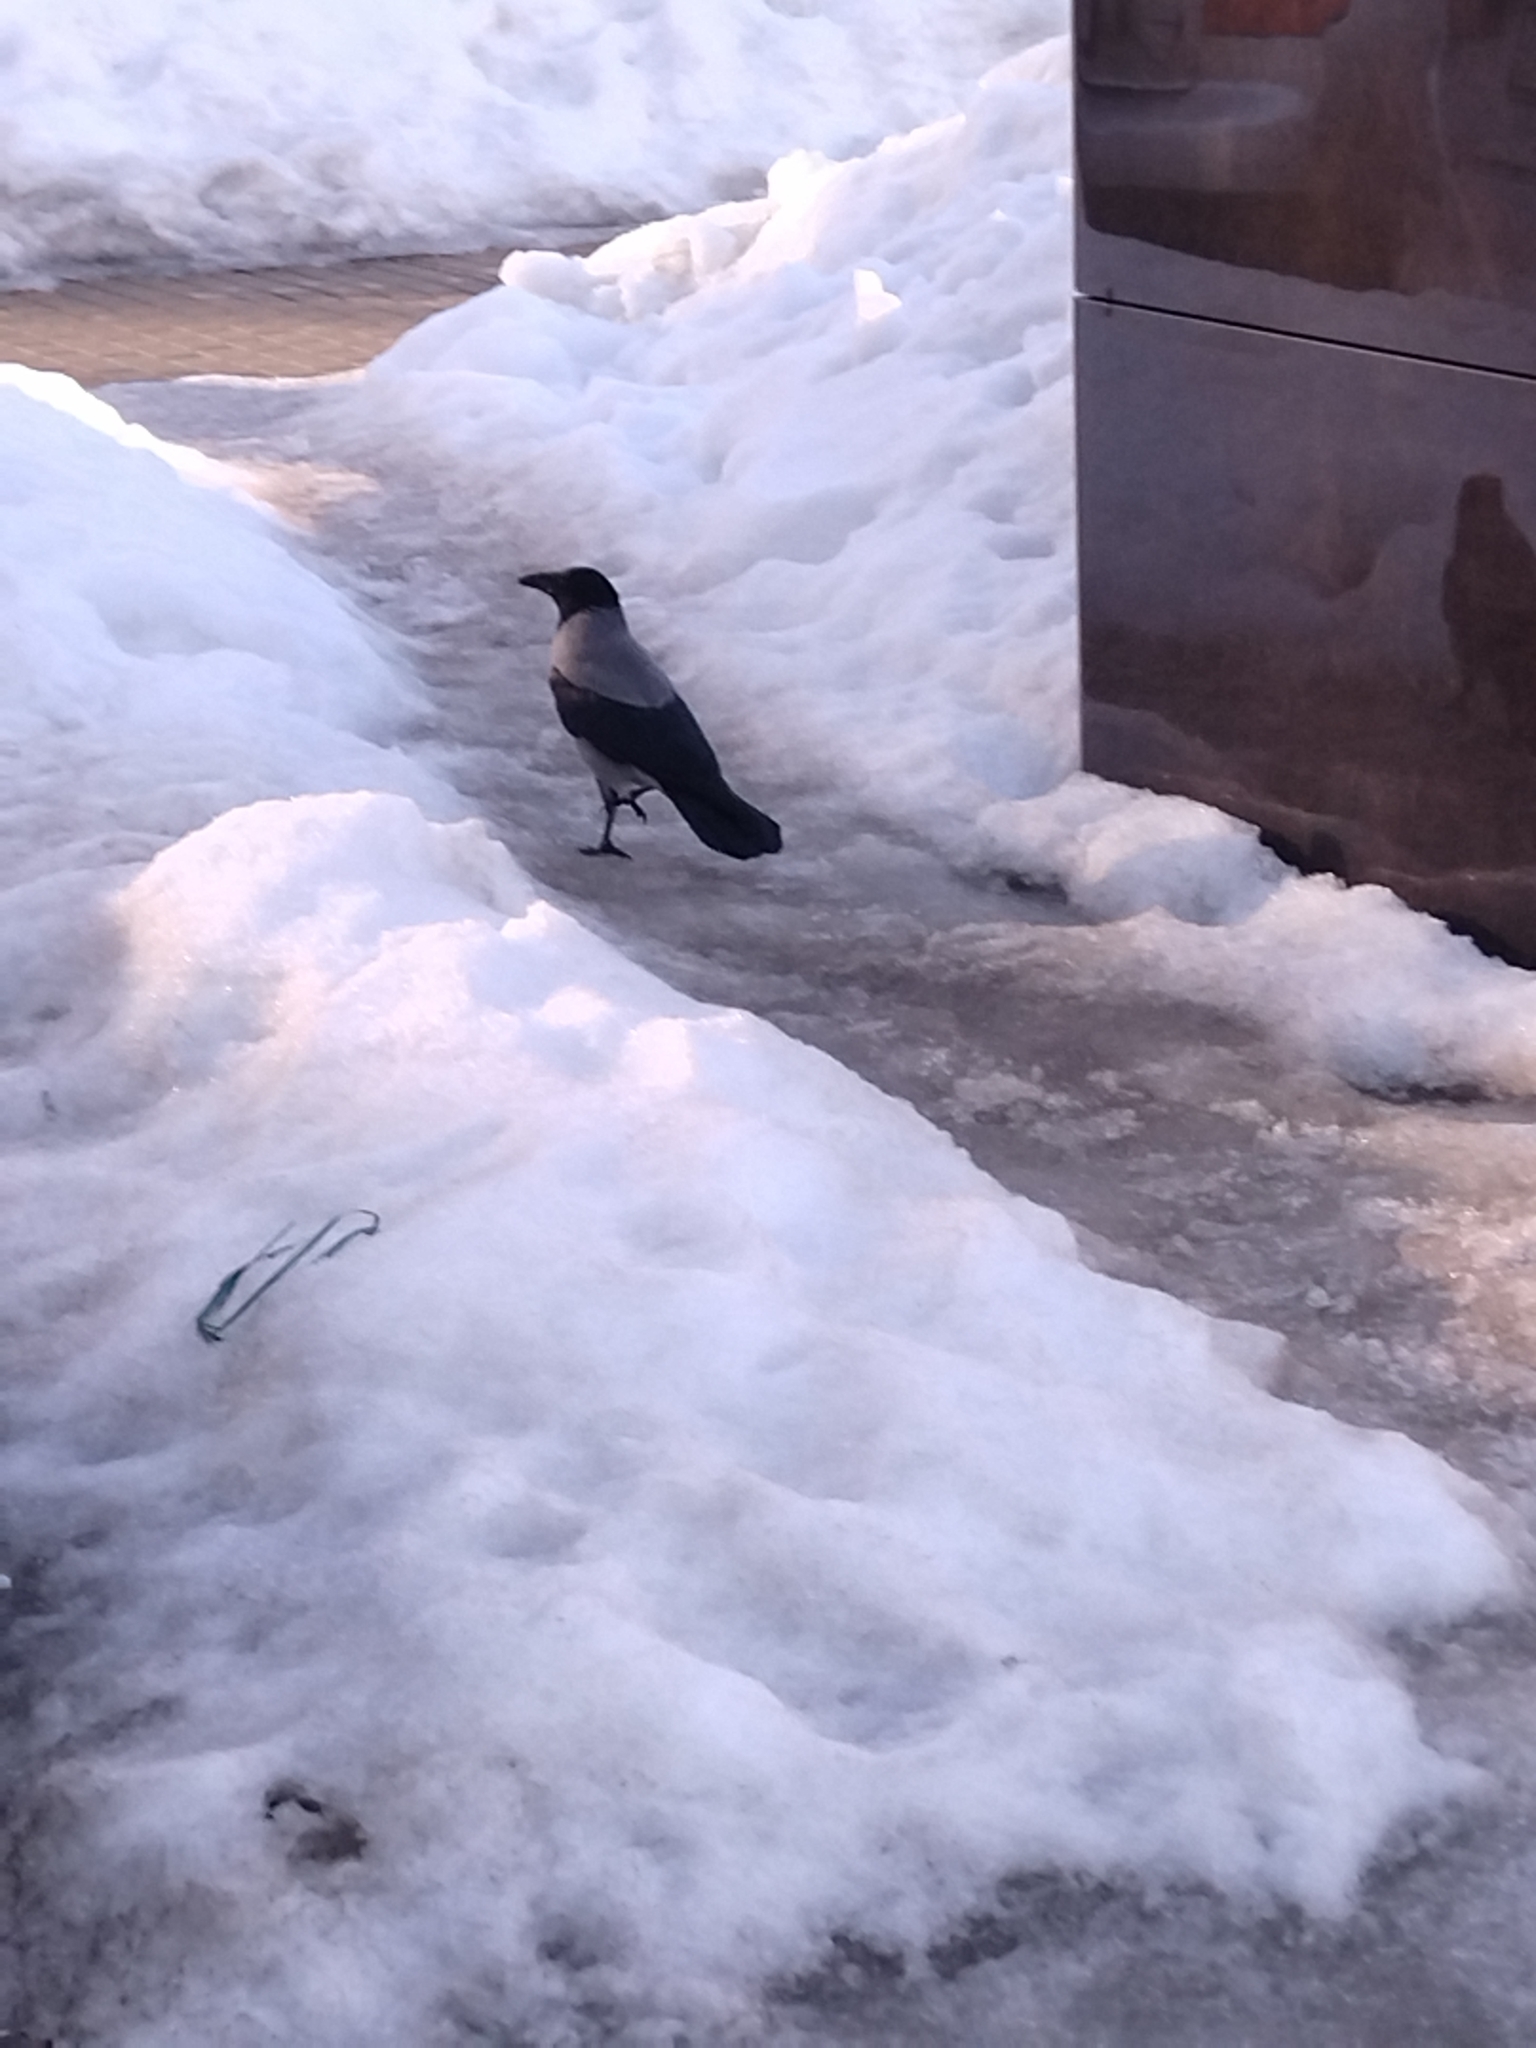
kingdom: Animalia
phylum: Chordata
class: Aves
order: Passeriformes
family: Corvidae
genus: Corvus
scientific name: Corvus cornix
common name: Hooded crow
